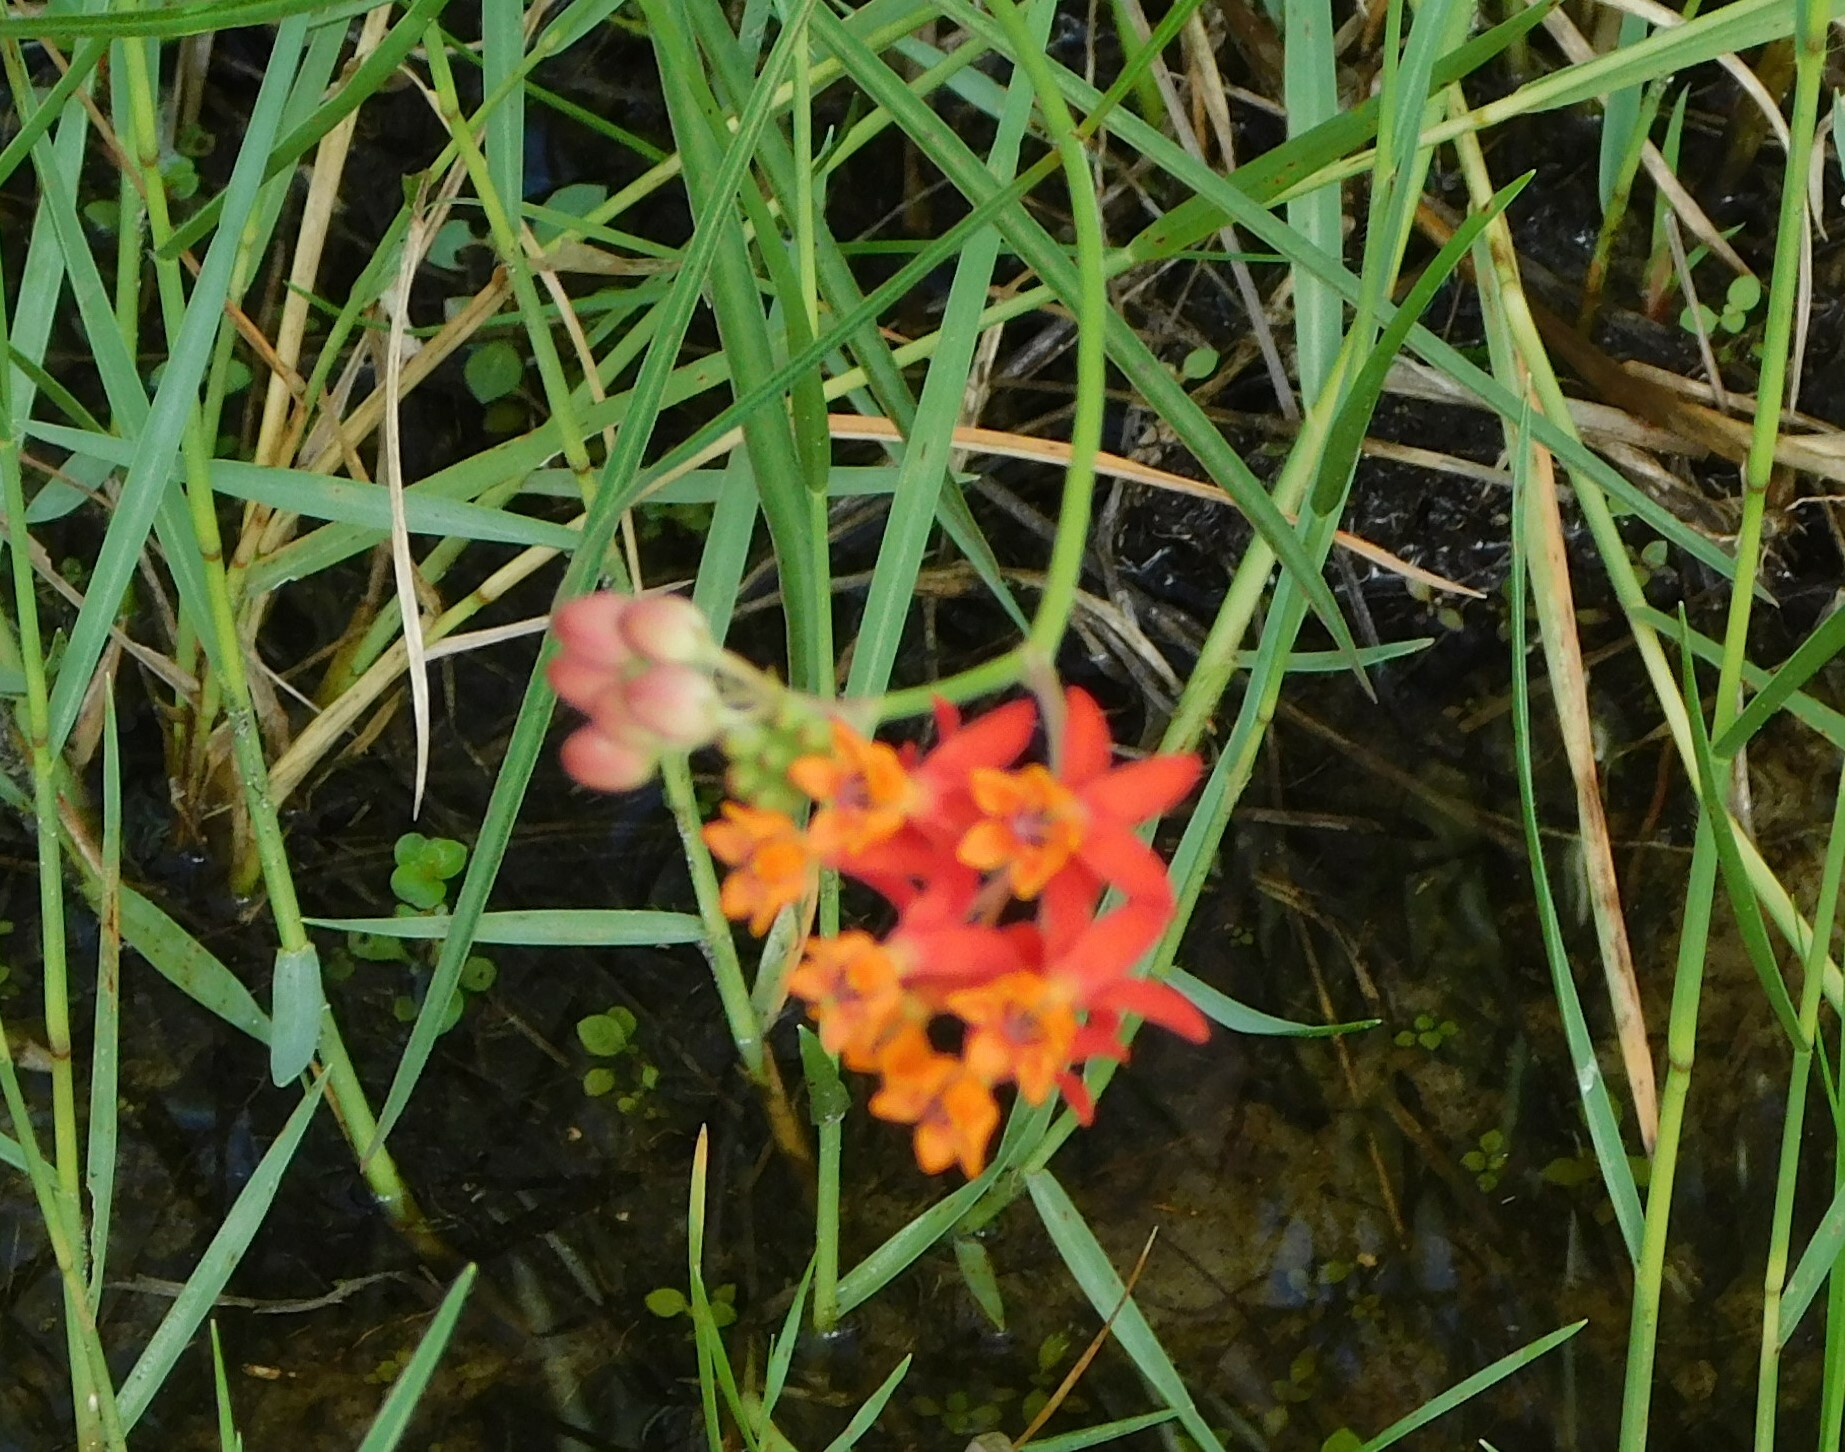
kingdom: Plantae
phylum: Tracheophyta
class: Magnoliopsida
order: Gentianales
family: Apocynaceae
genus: Asclepias
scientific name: Asclepias lanceolata
